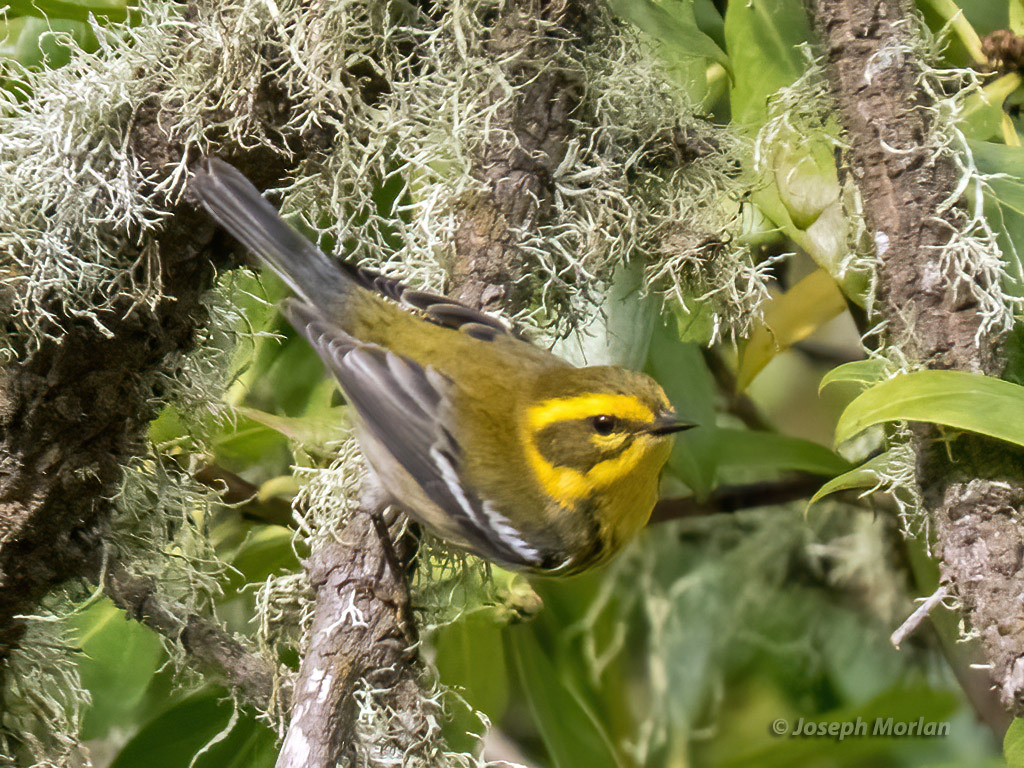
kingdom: Animalia
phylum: Chordata
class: Aves
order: Passeriformes
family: Parulidae
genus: Setophaga
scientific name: Setophaga townsendi
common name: Townsend's warbler
